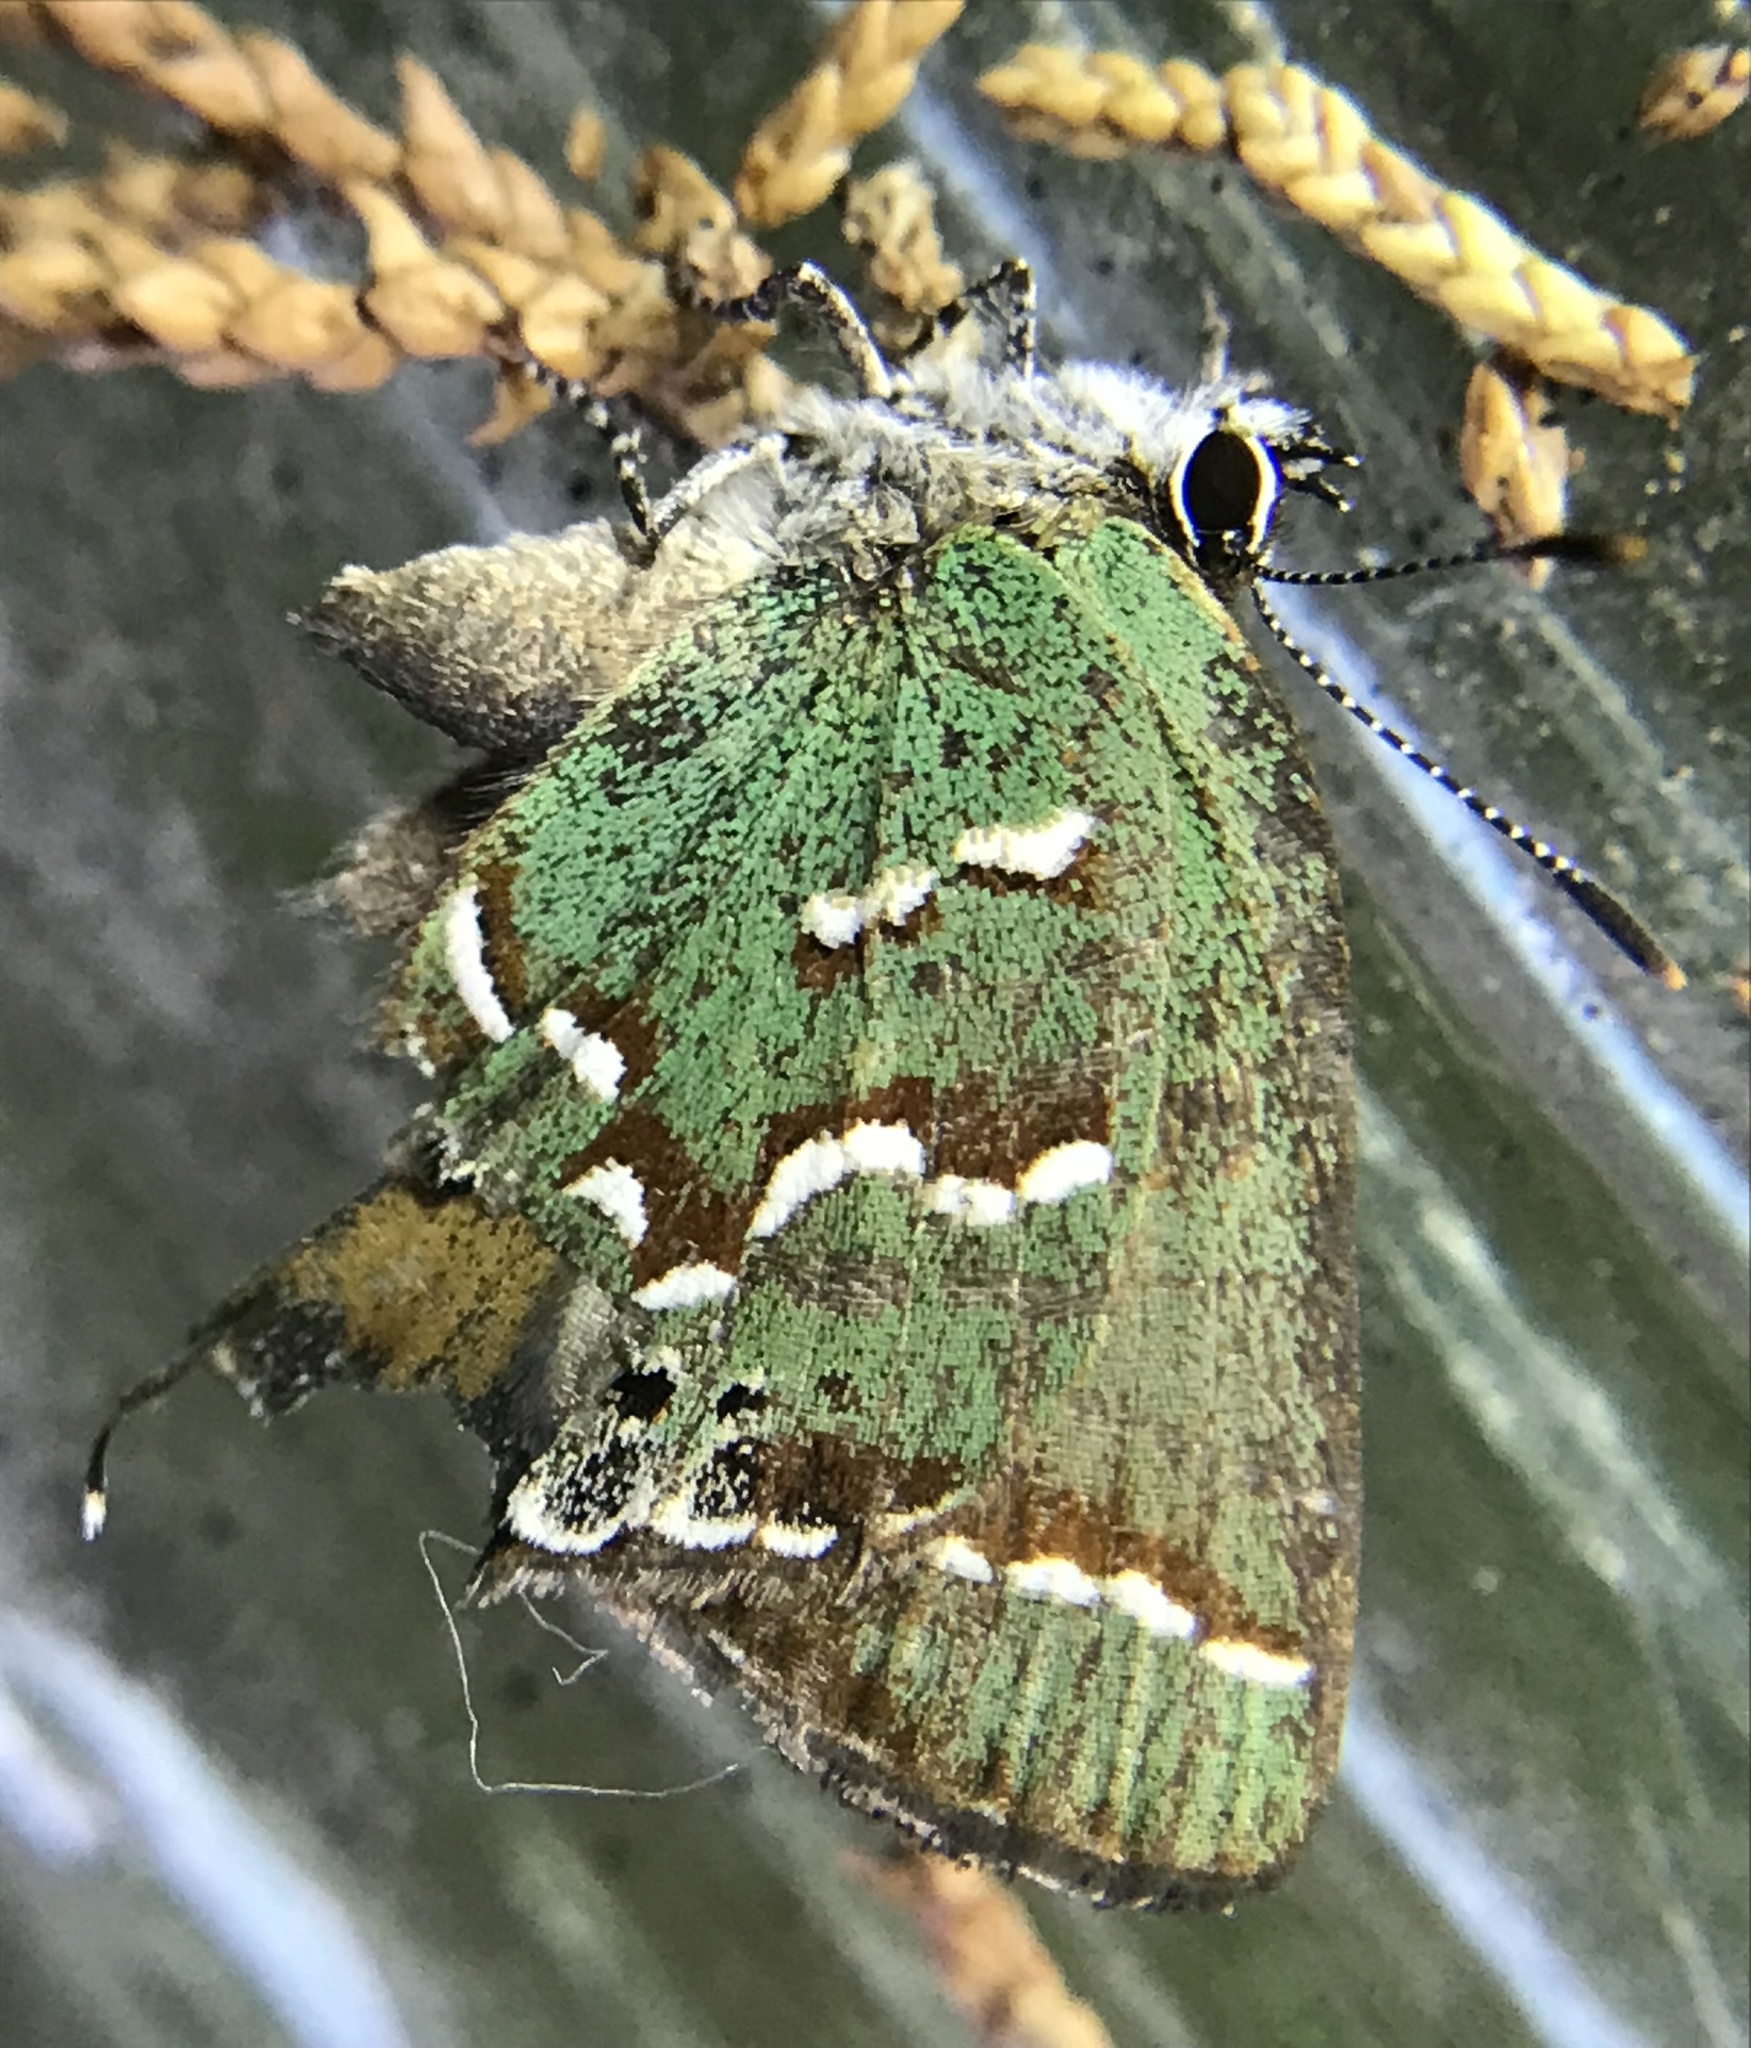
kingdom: Animalia
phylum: Arthropoda
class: Insecta
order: Lepidoptera
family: Lycaenidae
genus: Mitoura
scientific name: Mitoura gryneus
